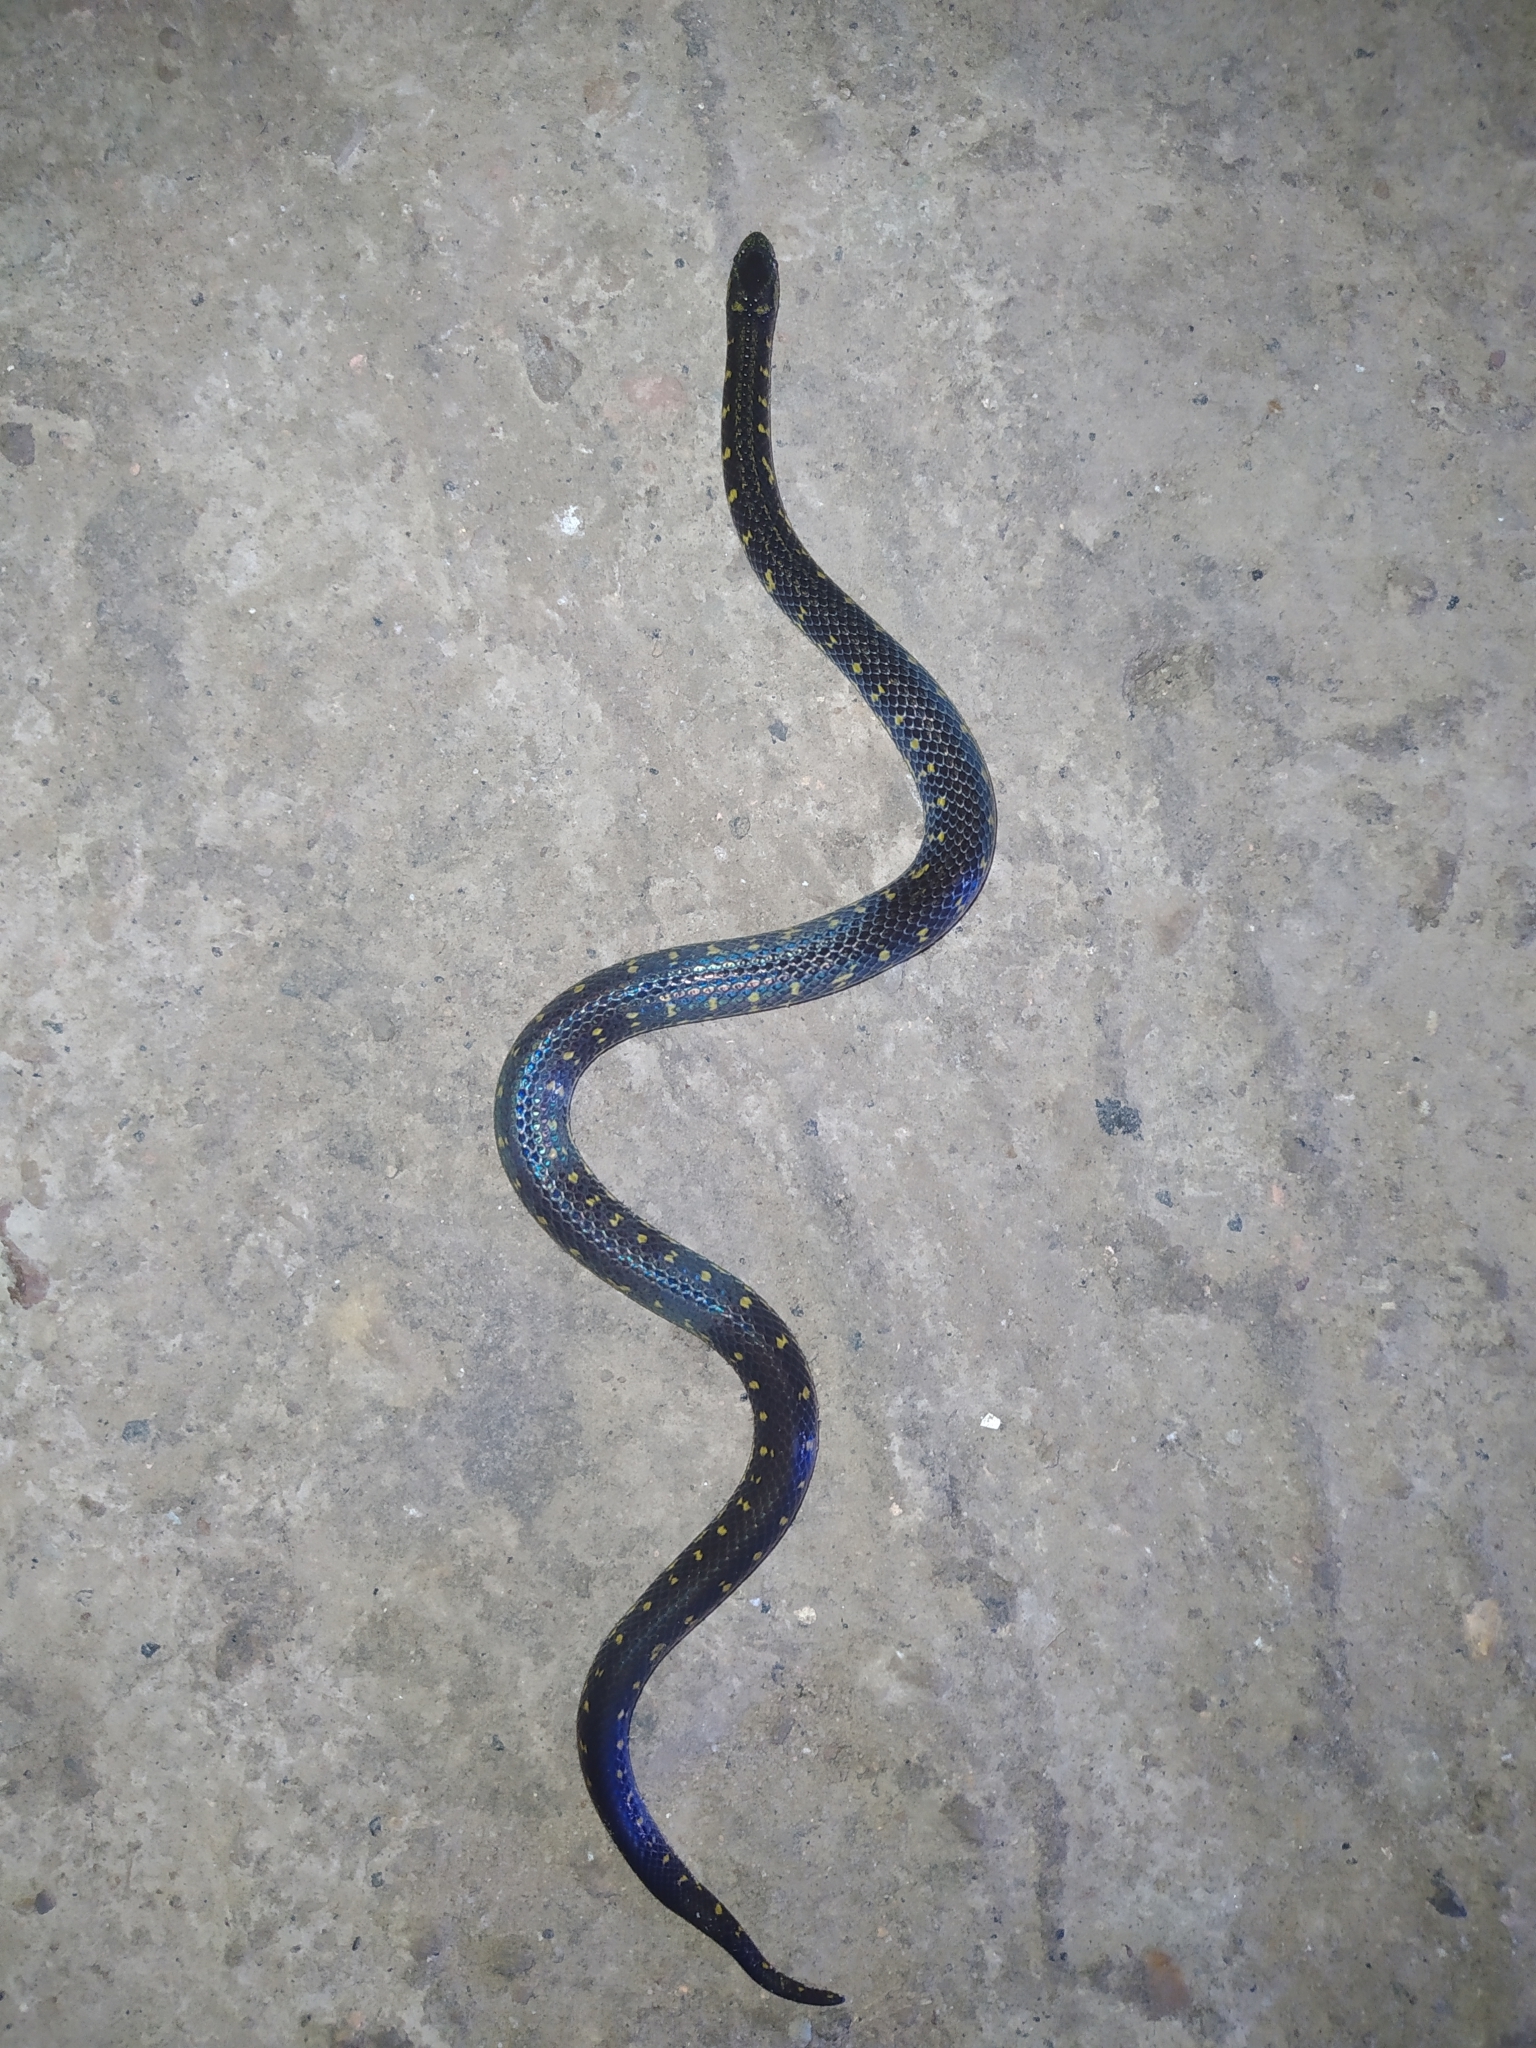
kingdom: Animalia
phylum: Chordata
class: Squamata
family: Colubridae
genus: Atractus
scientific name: Atractus crassicaudatus
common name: Thickhead ground snake
